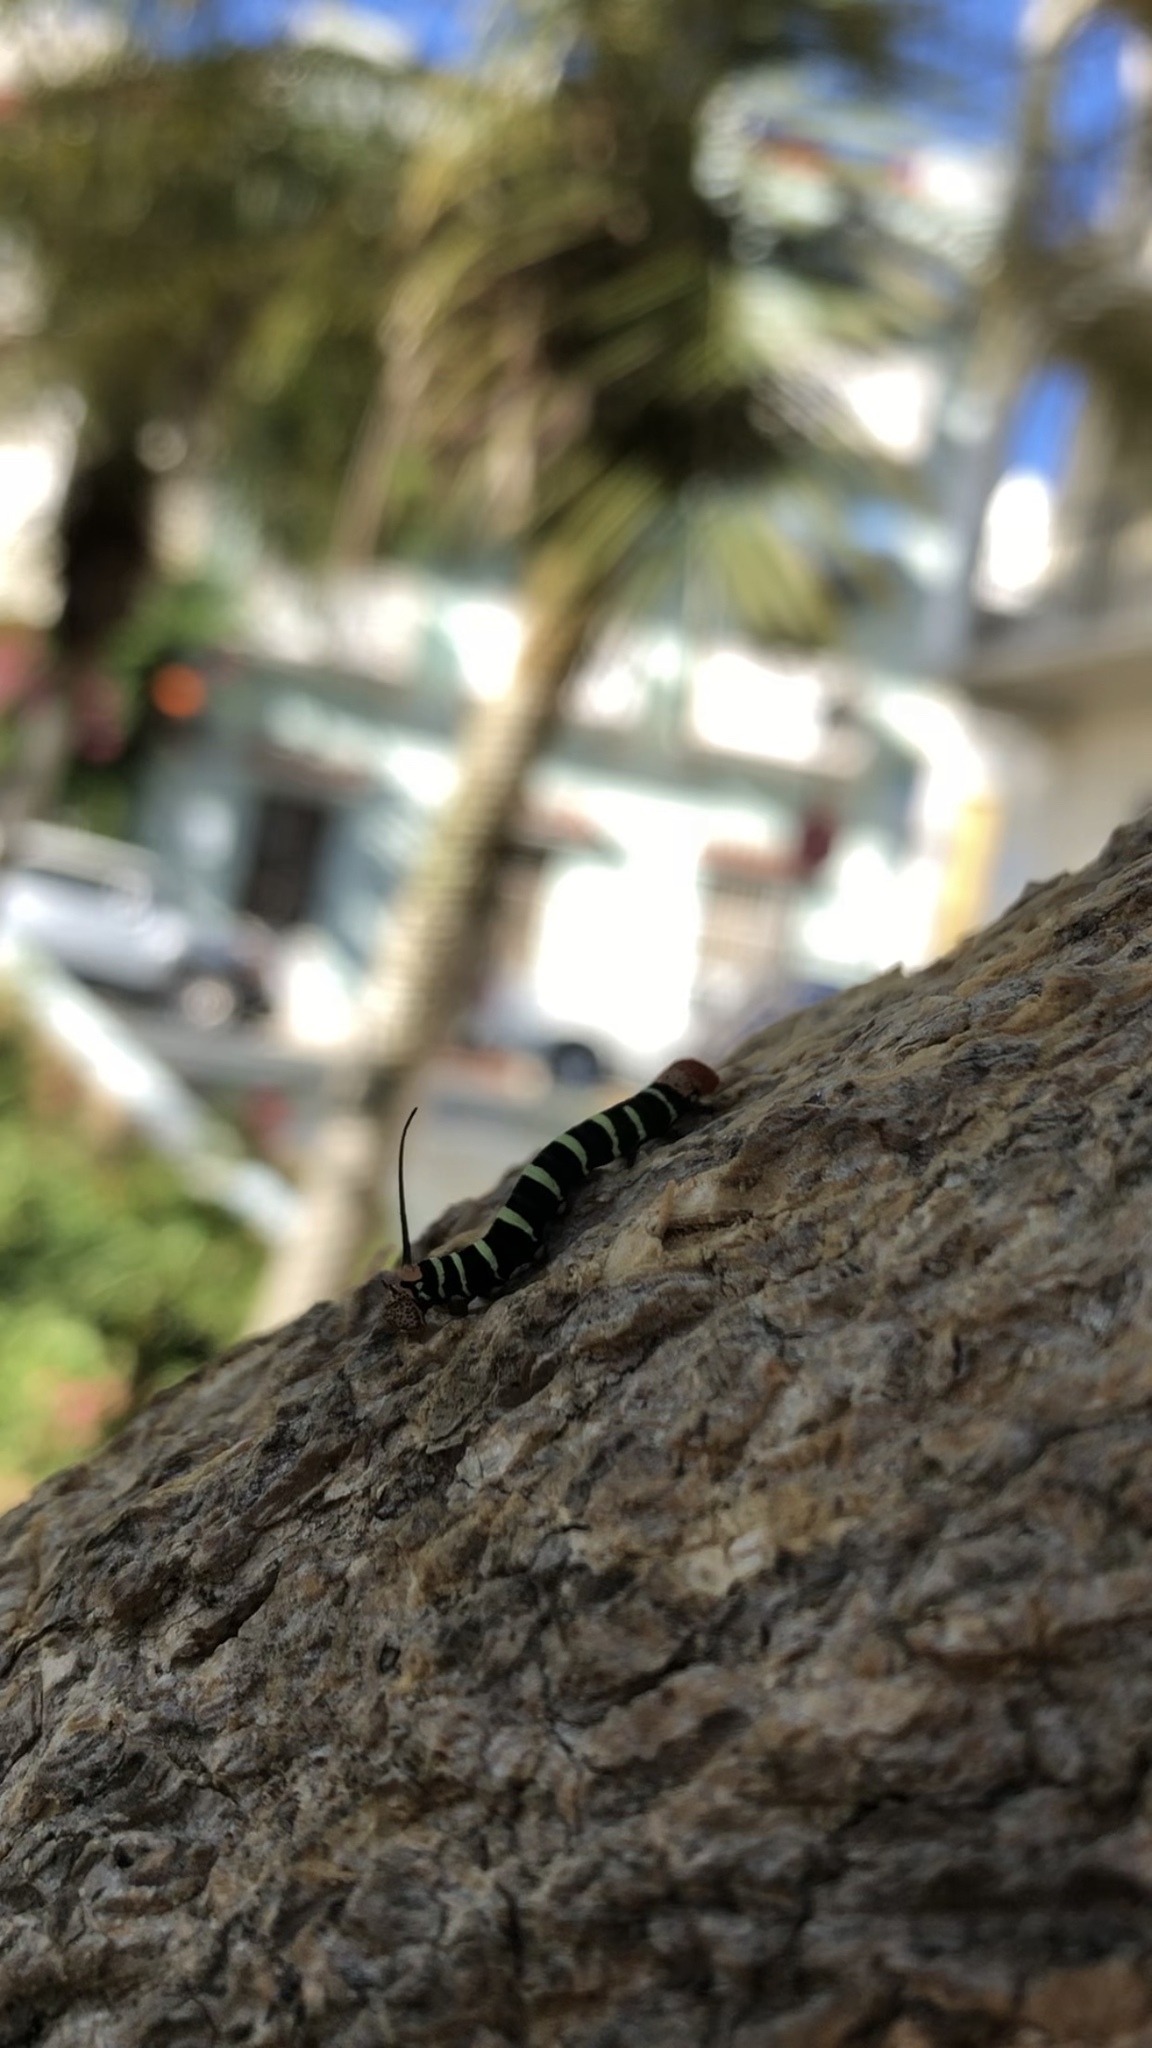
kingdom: Animalia
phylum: Arthropoda
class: Insecta
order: Lepidoptera
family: Sphingidae
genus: Pseudosphinx
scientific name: Pseudosphinx tetrio
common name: Tetrio sphinx
